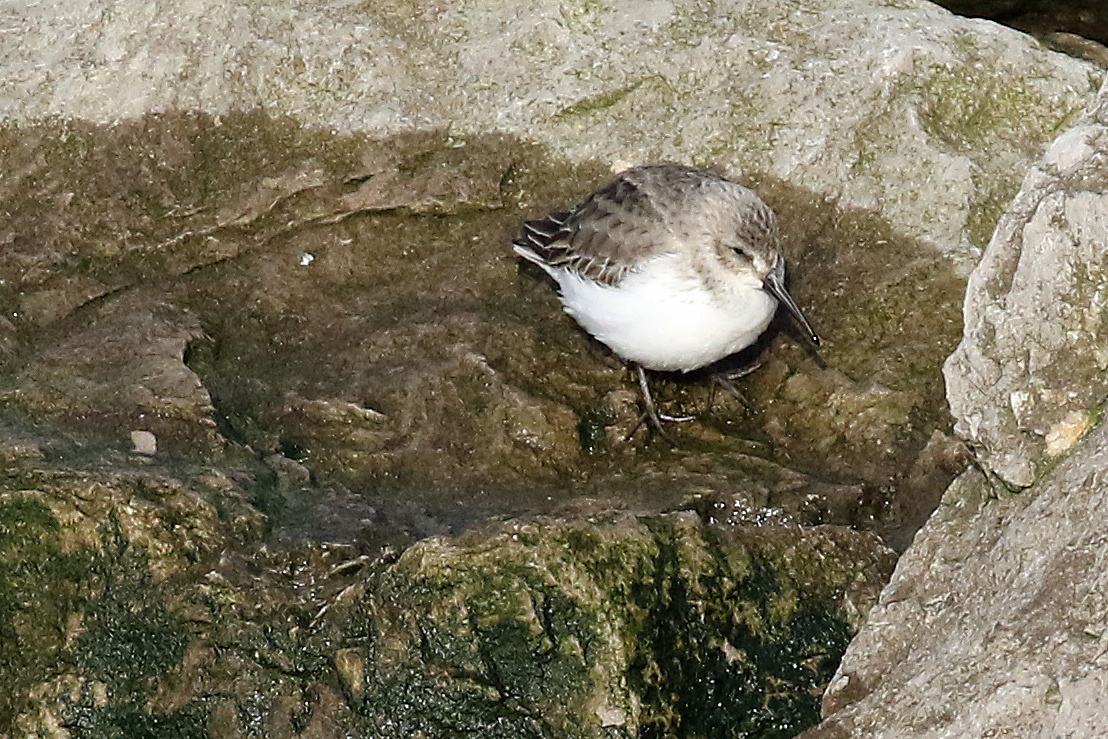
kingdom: Animalia
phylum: Chordata
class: Aves
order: Charadriiformes
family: Scolopacidae
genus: Calidris
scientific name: Calidris alpina
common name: Dunlin
